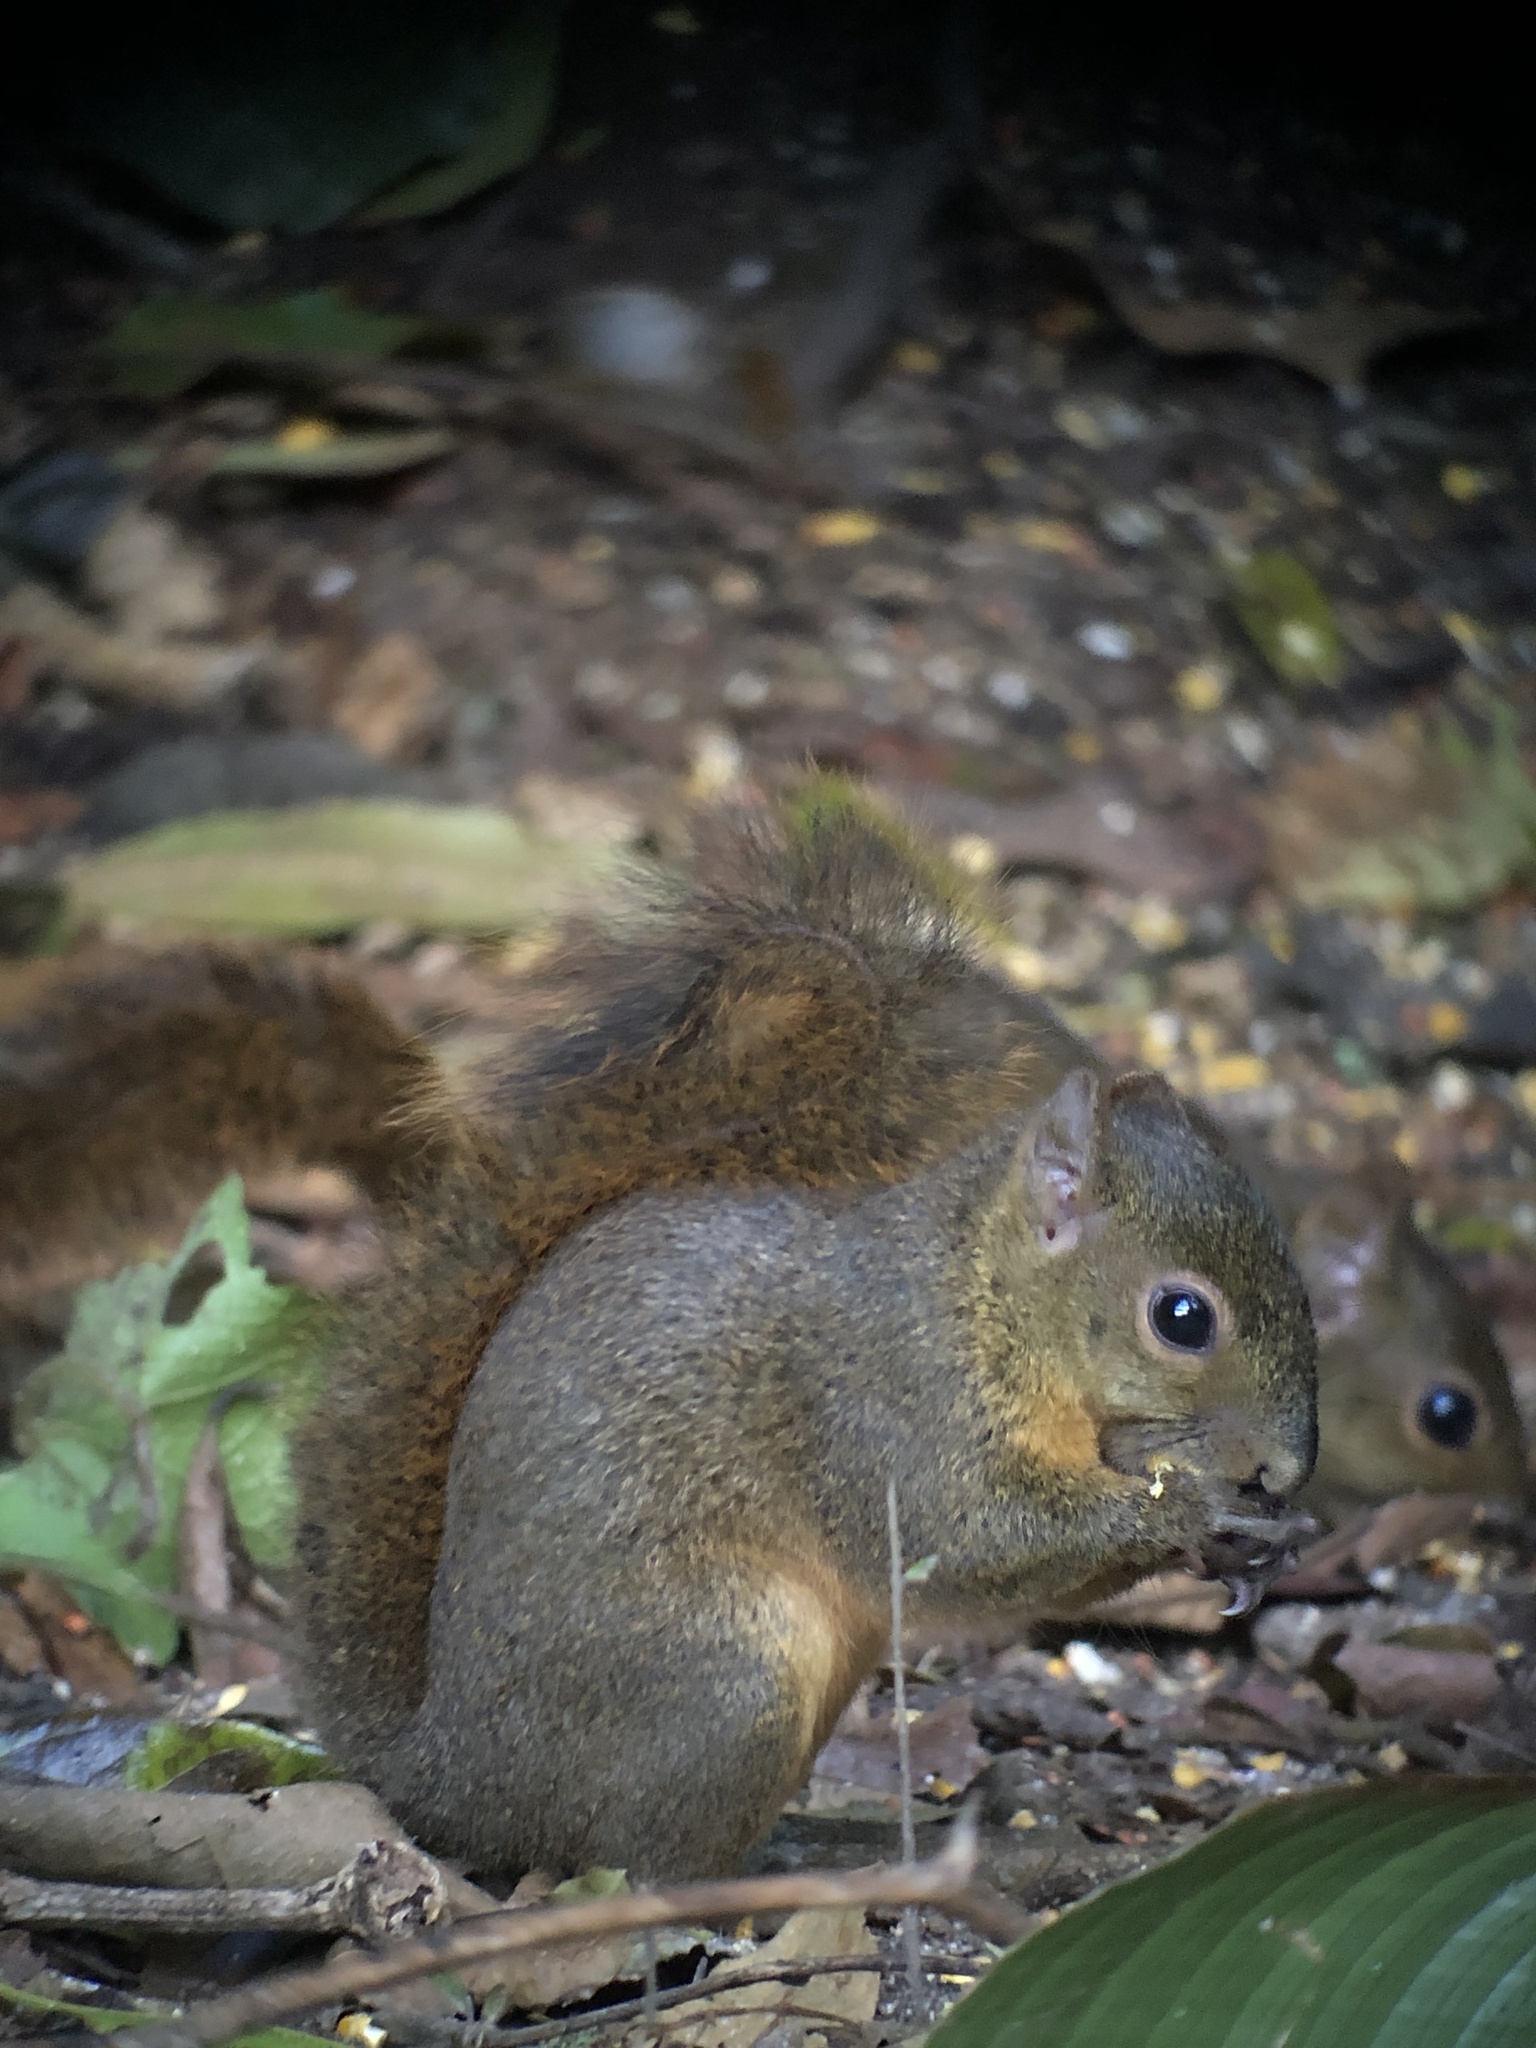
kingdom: Animalia
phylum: Chordata
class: Mammalia
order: Rodentia
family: Sciuridae
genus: Sciurus
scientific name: Sciurus granatensis
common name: Red-tailed squirrel
